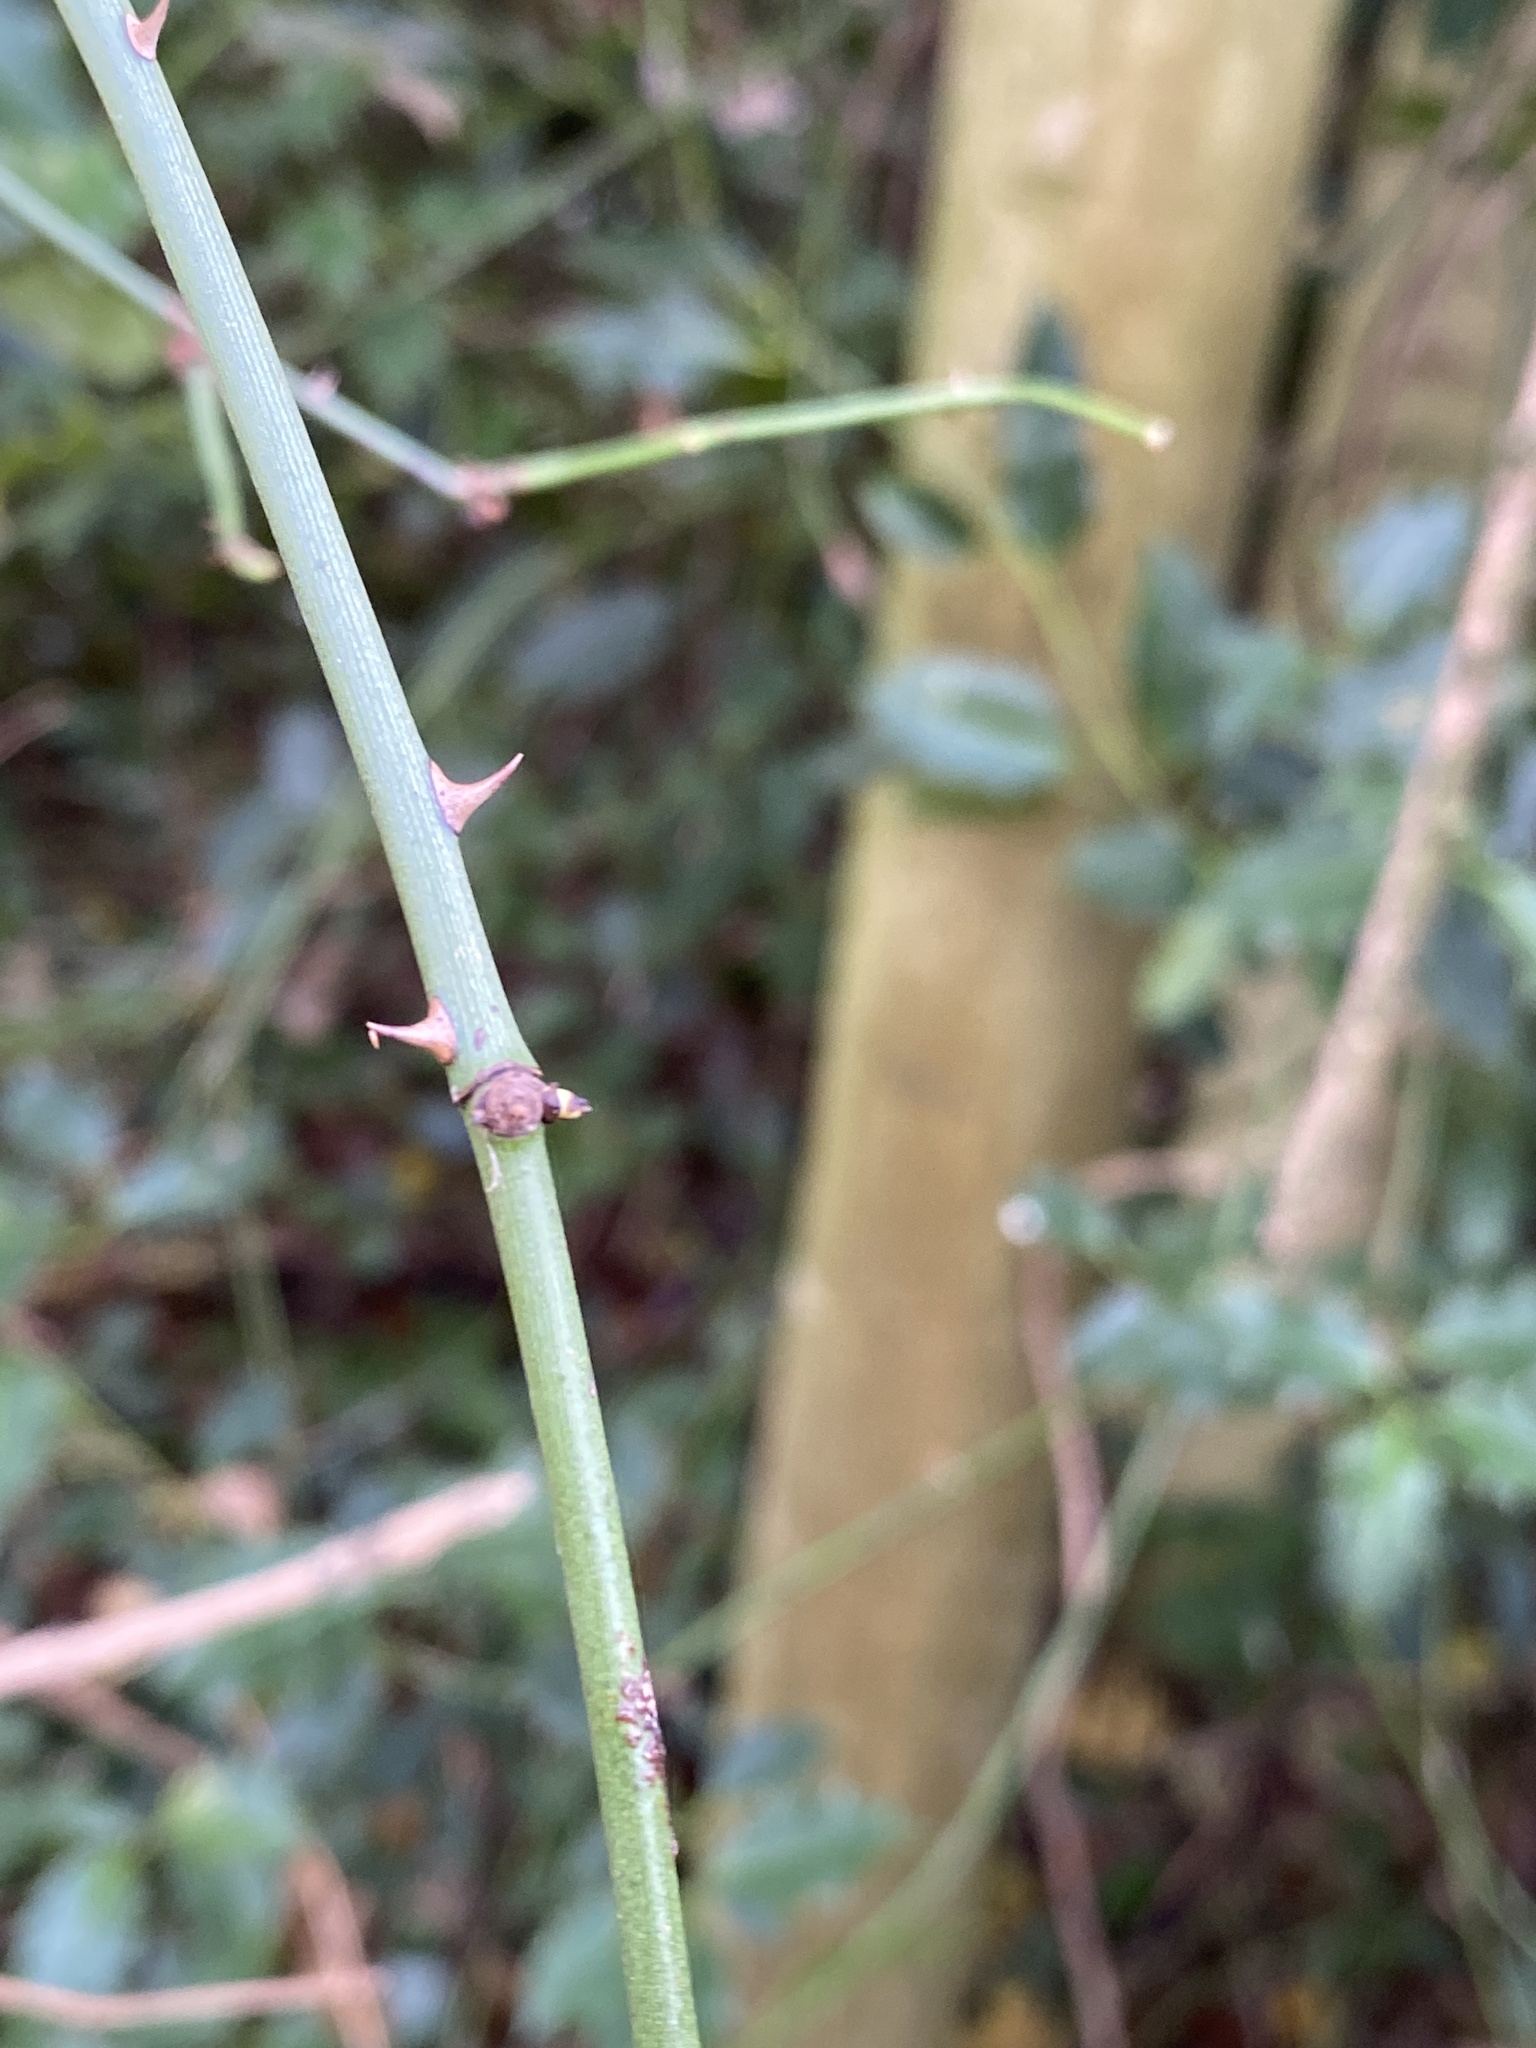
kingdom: Plantae
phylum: Tracheophyta
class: Magnoliopsida
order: Rosales
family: Rosaceae
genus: Rosa
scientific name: Rosa canina
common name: Dog rose
